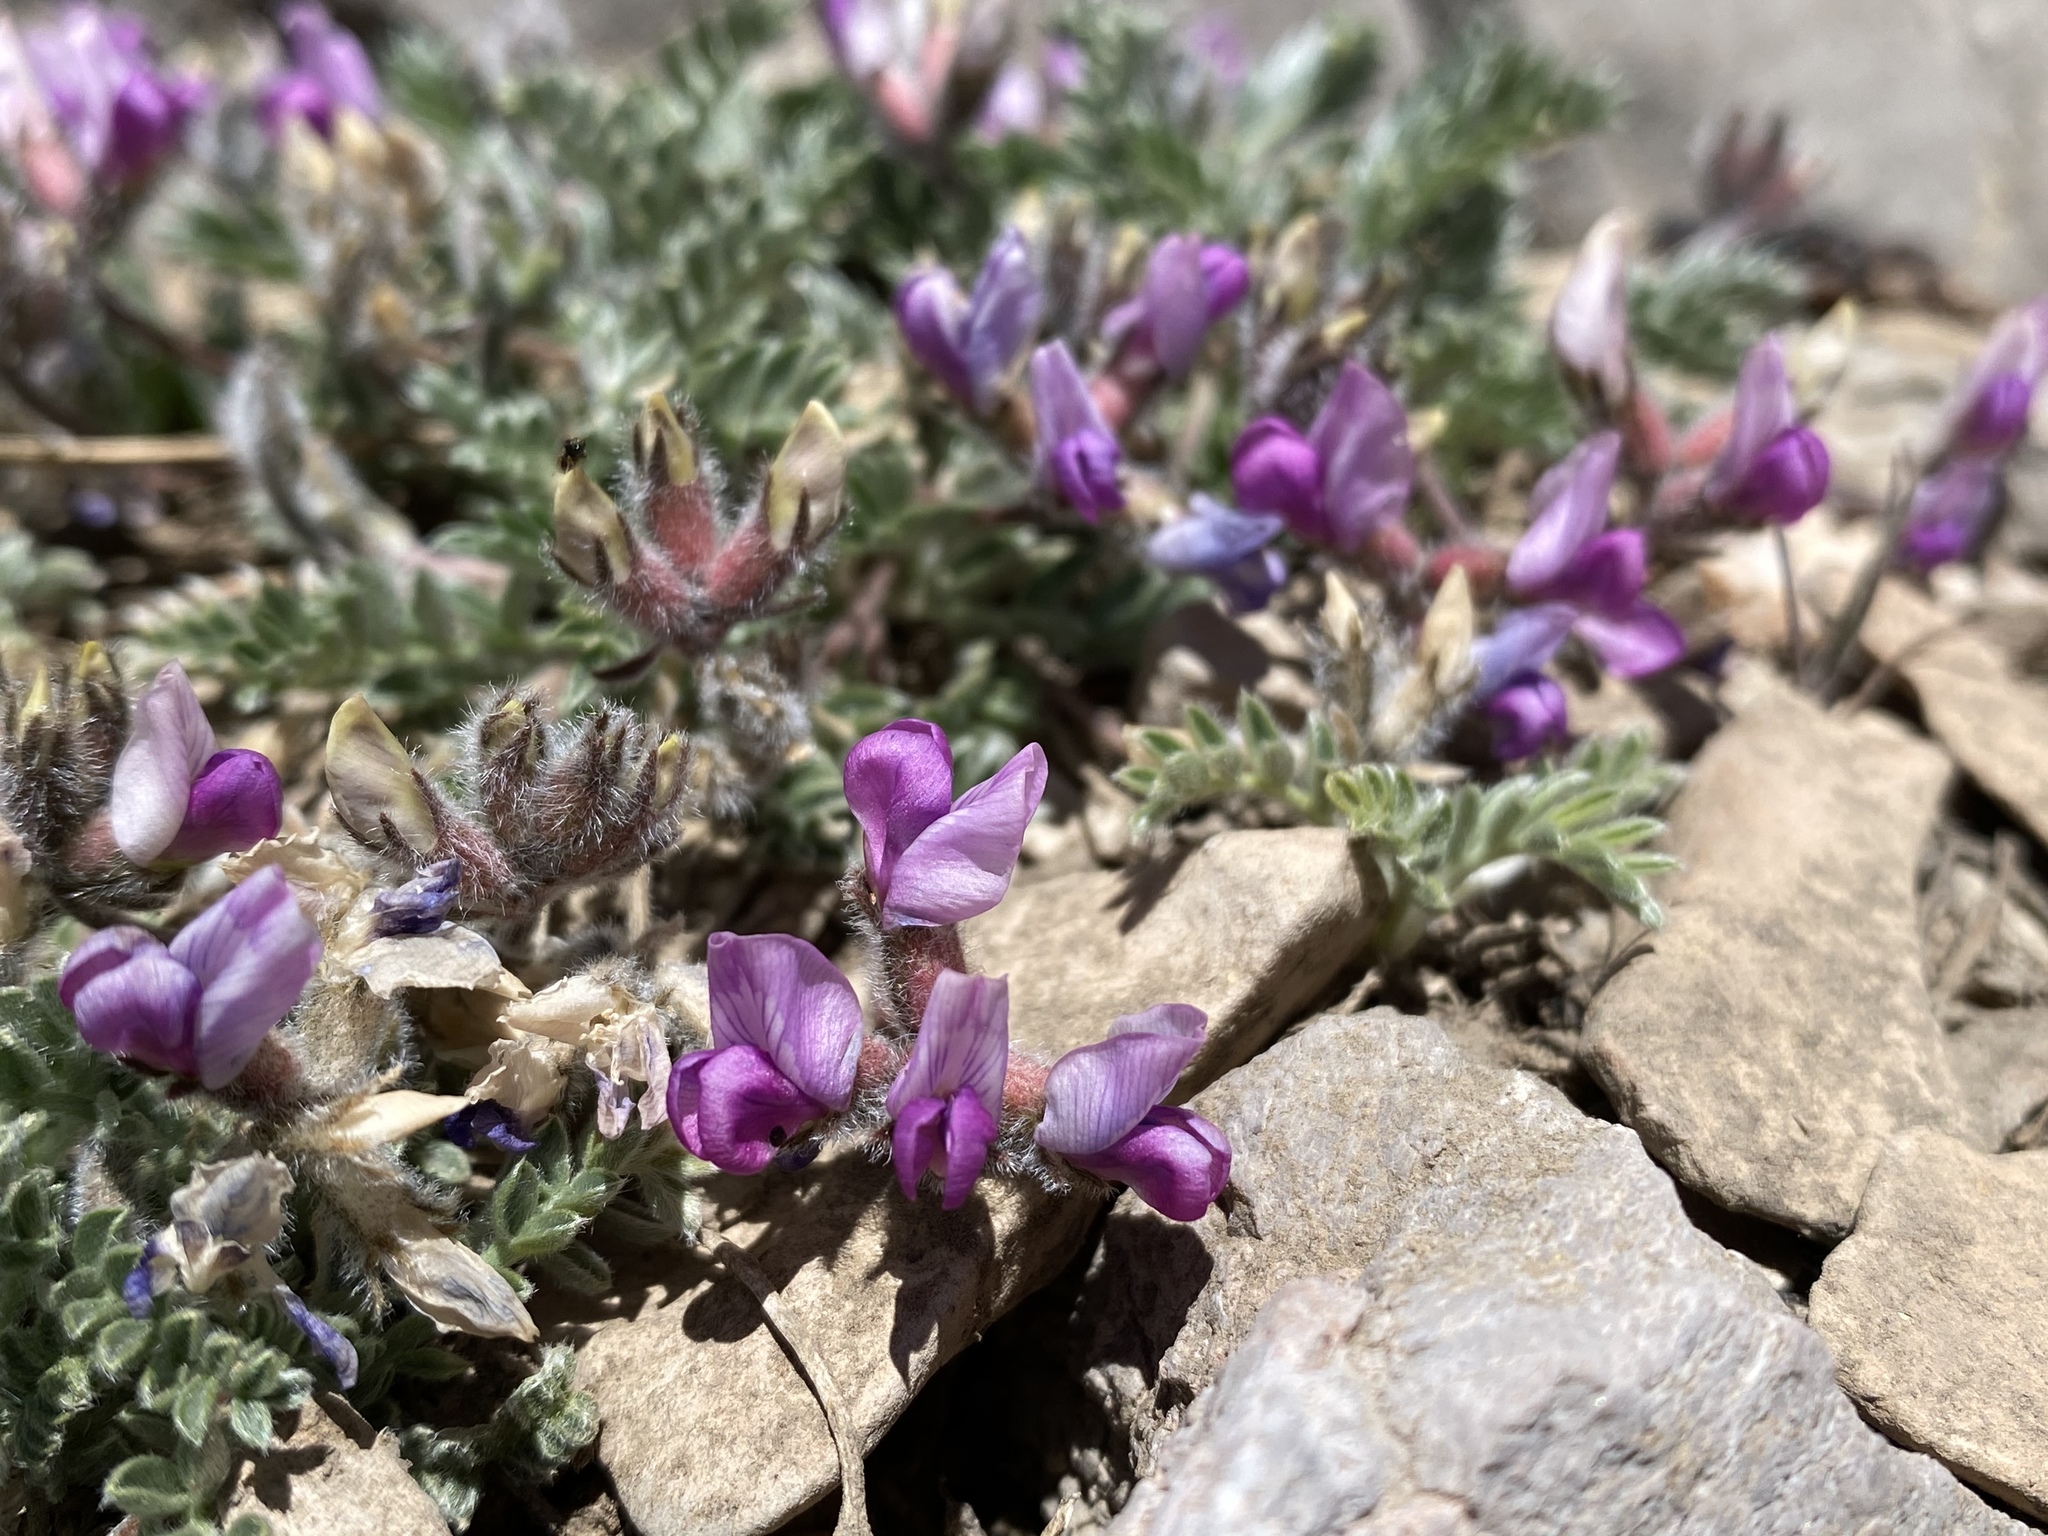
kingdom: Plantae
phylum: Tracheophyta
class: Magnoliopsida
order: Fabales
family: Fabaceae
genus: Oxytropis
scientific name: Oxytropis oreophila
